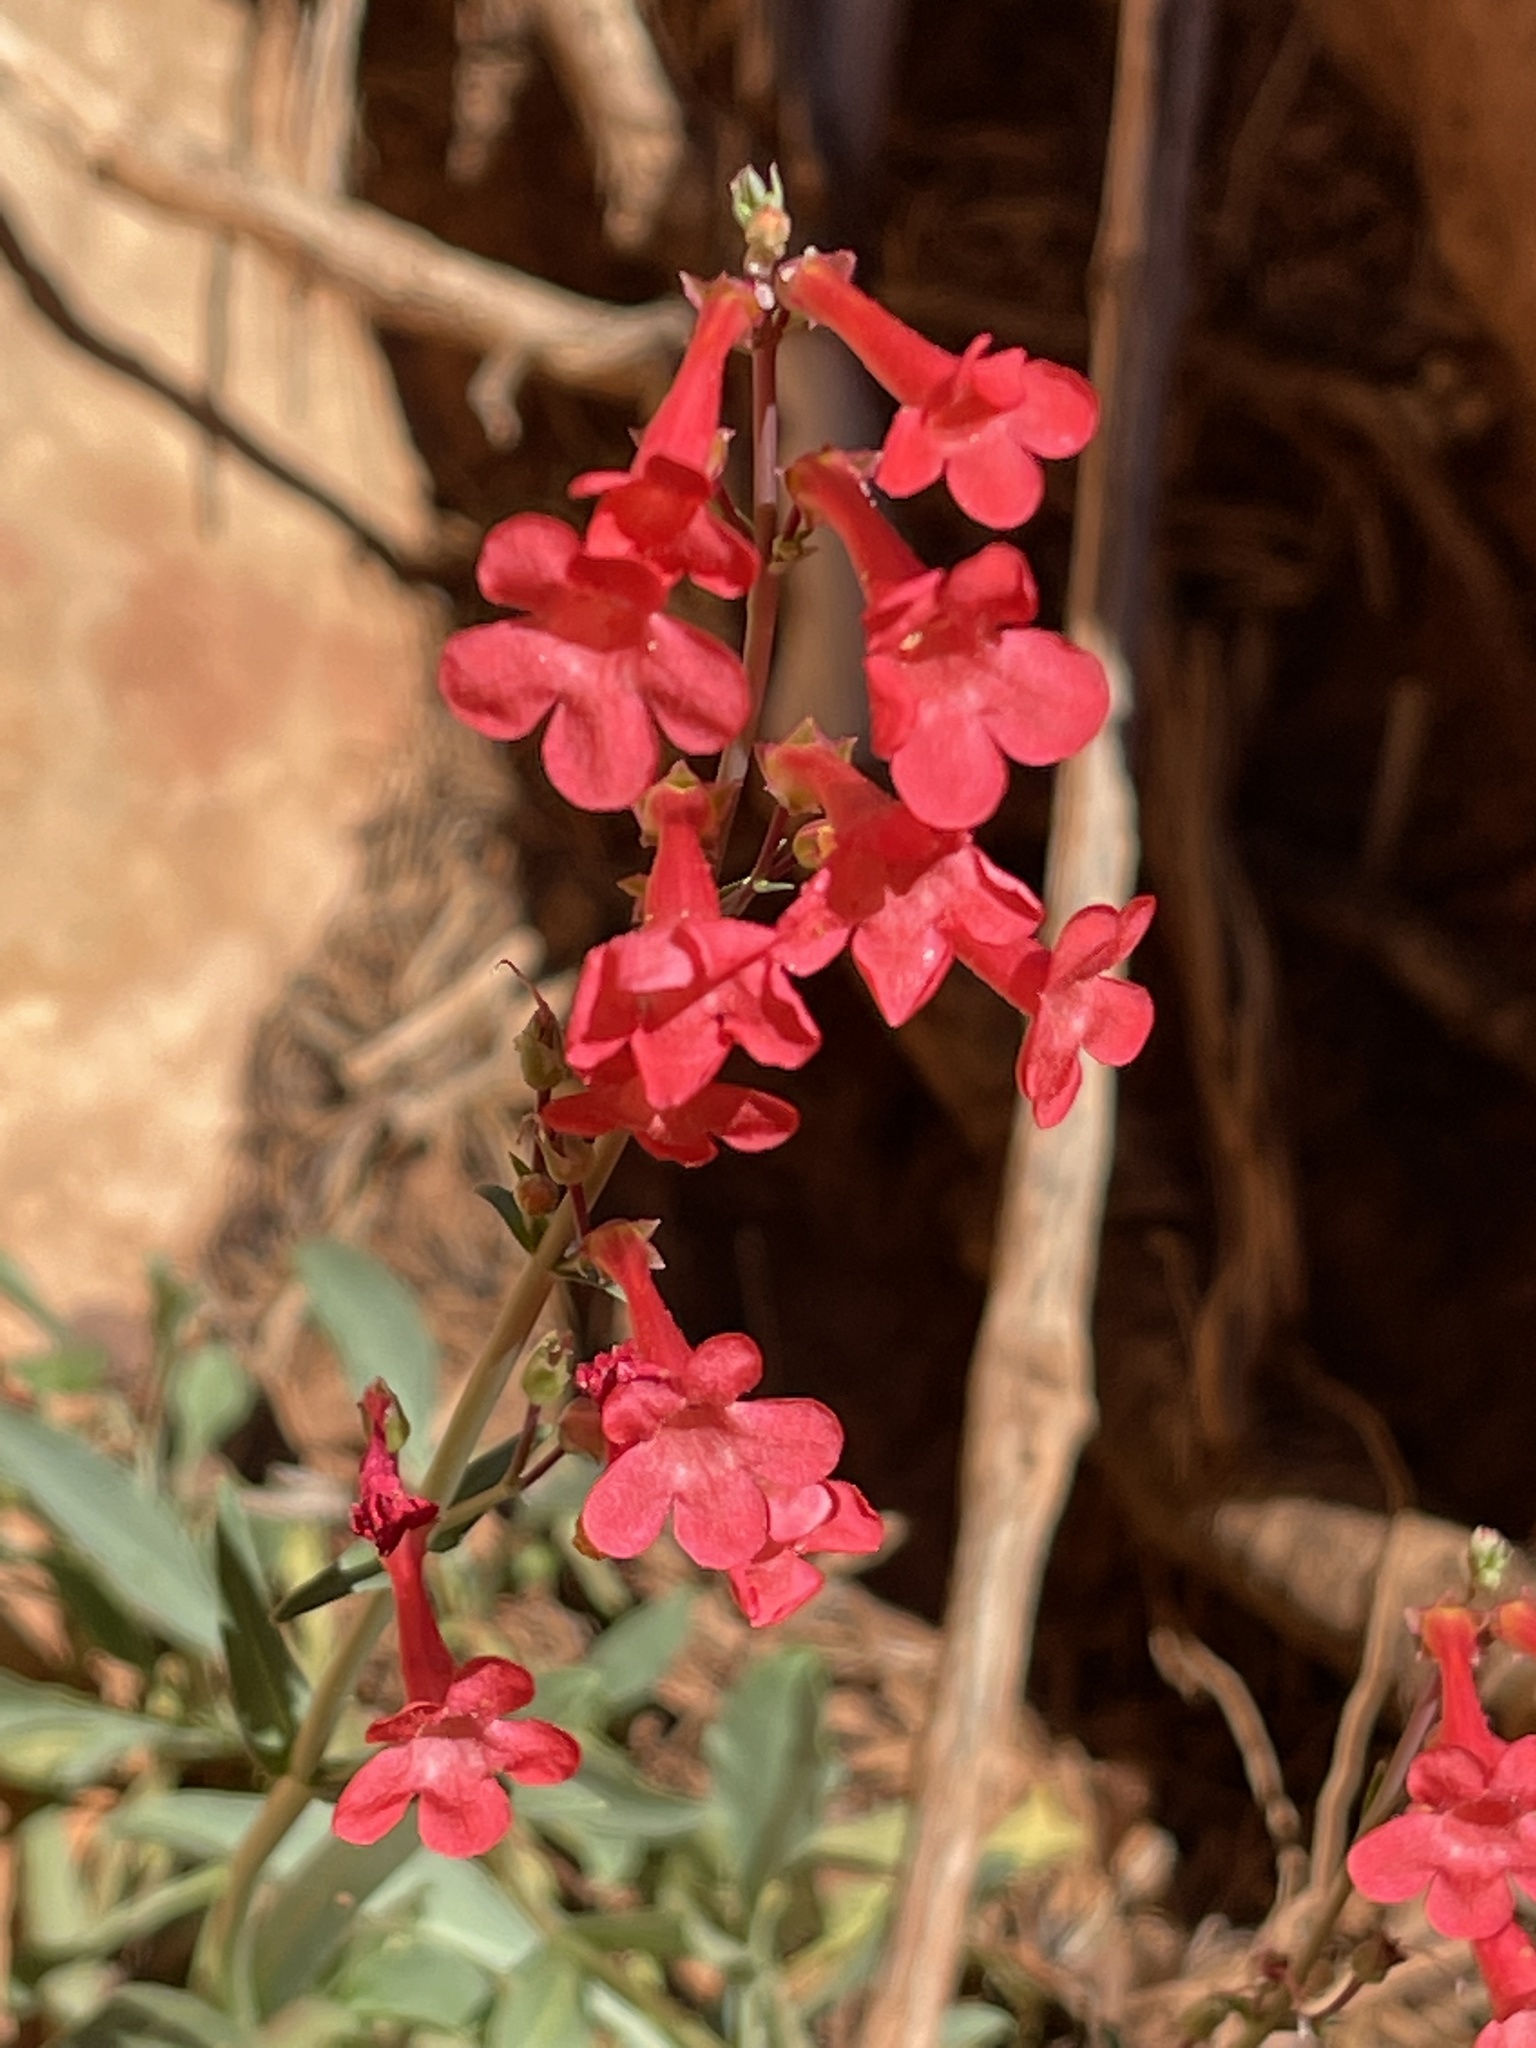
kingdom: Plantae
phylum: Tracheophyta
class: Magnoliopsida
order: Lamiales
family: Plantaginaceae
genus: Penstemon
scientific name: Penstemon utahensis
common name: Utah penstemon
